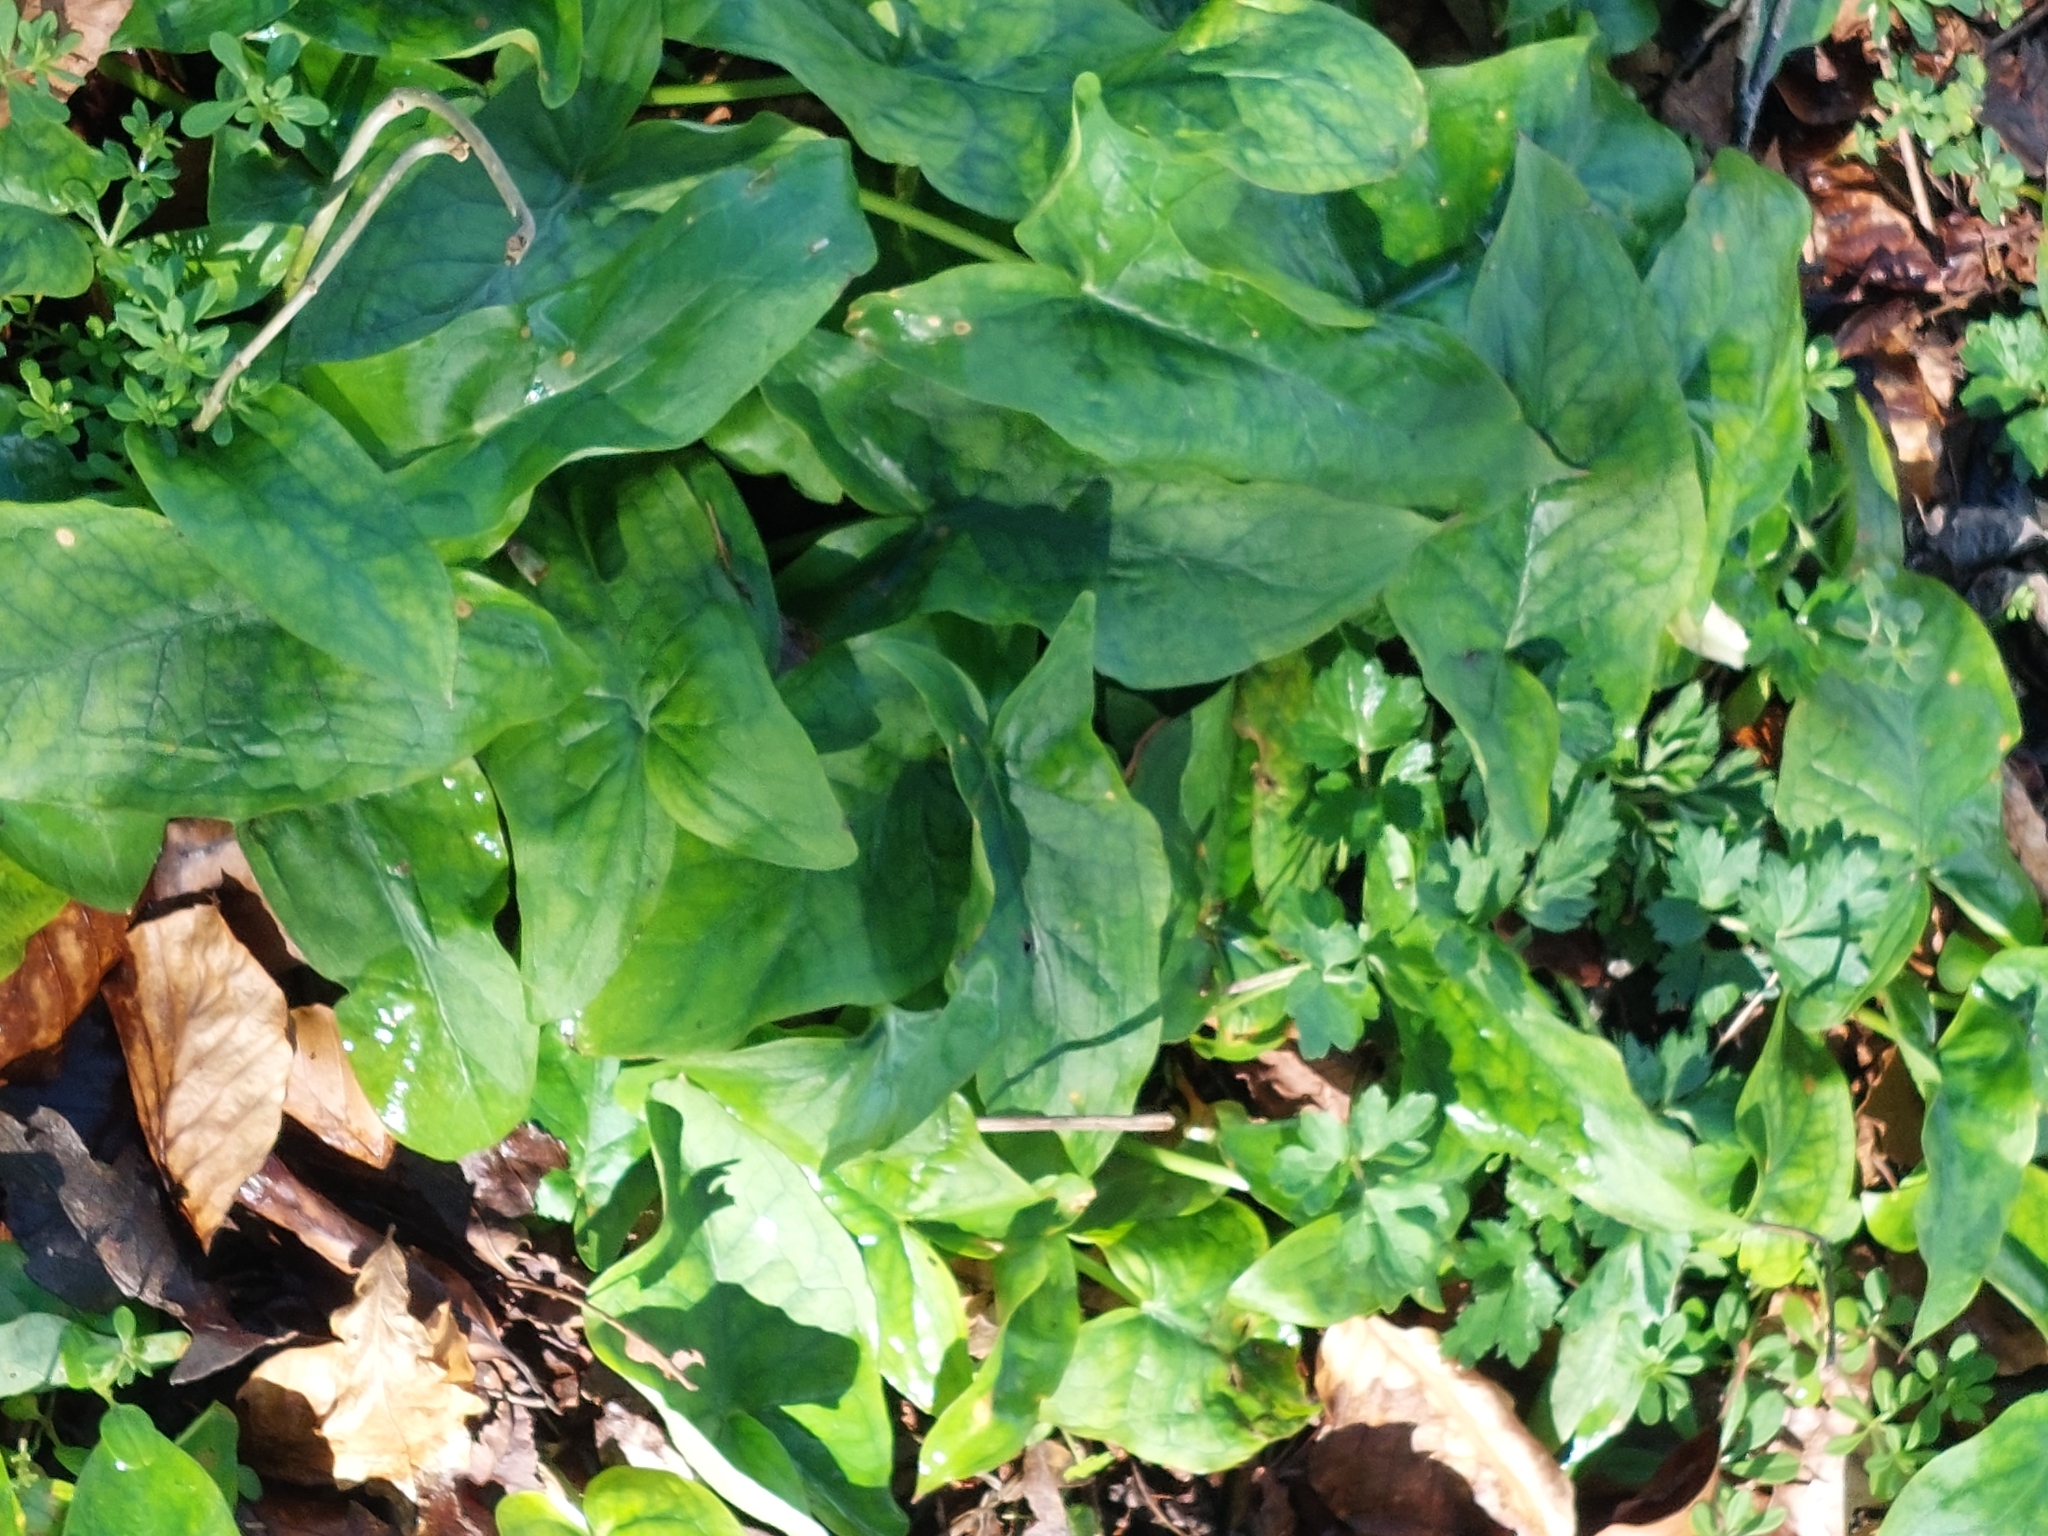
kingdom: Plantae
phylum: Tracheophyta
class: Liliopsida
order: Alismatales
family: Araceae
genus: Arum
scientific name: Arum maculatum
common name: Lords-and-ladies
